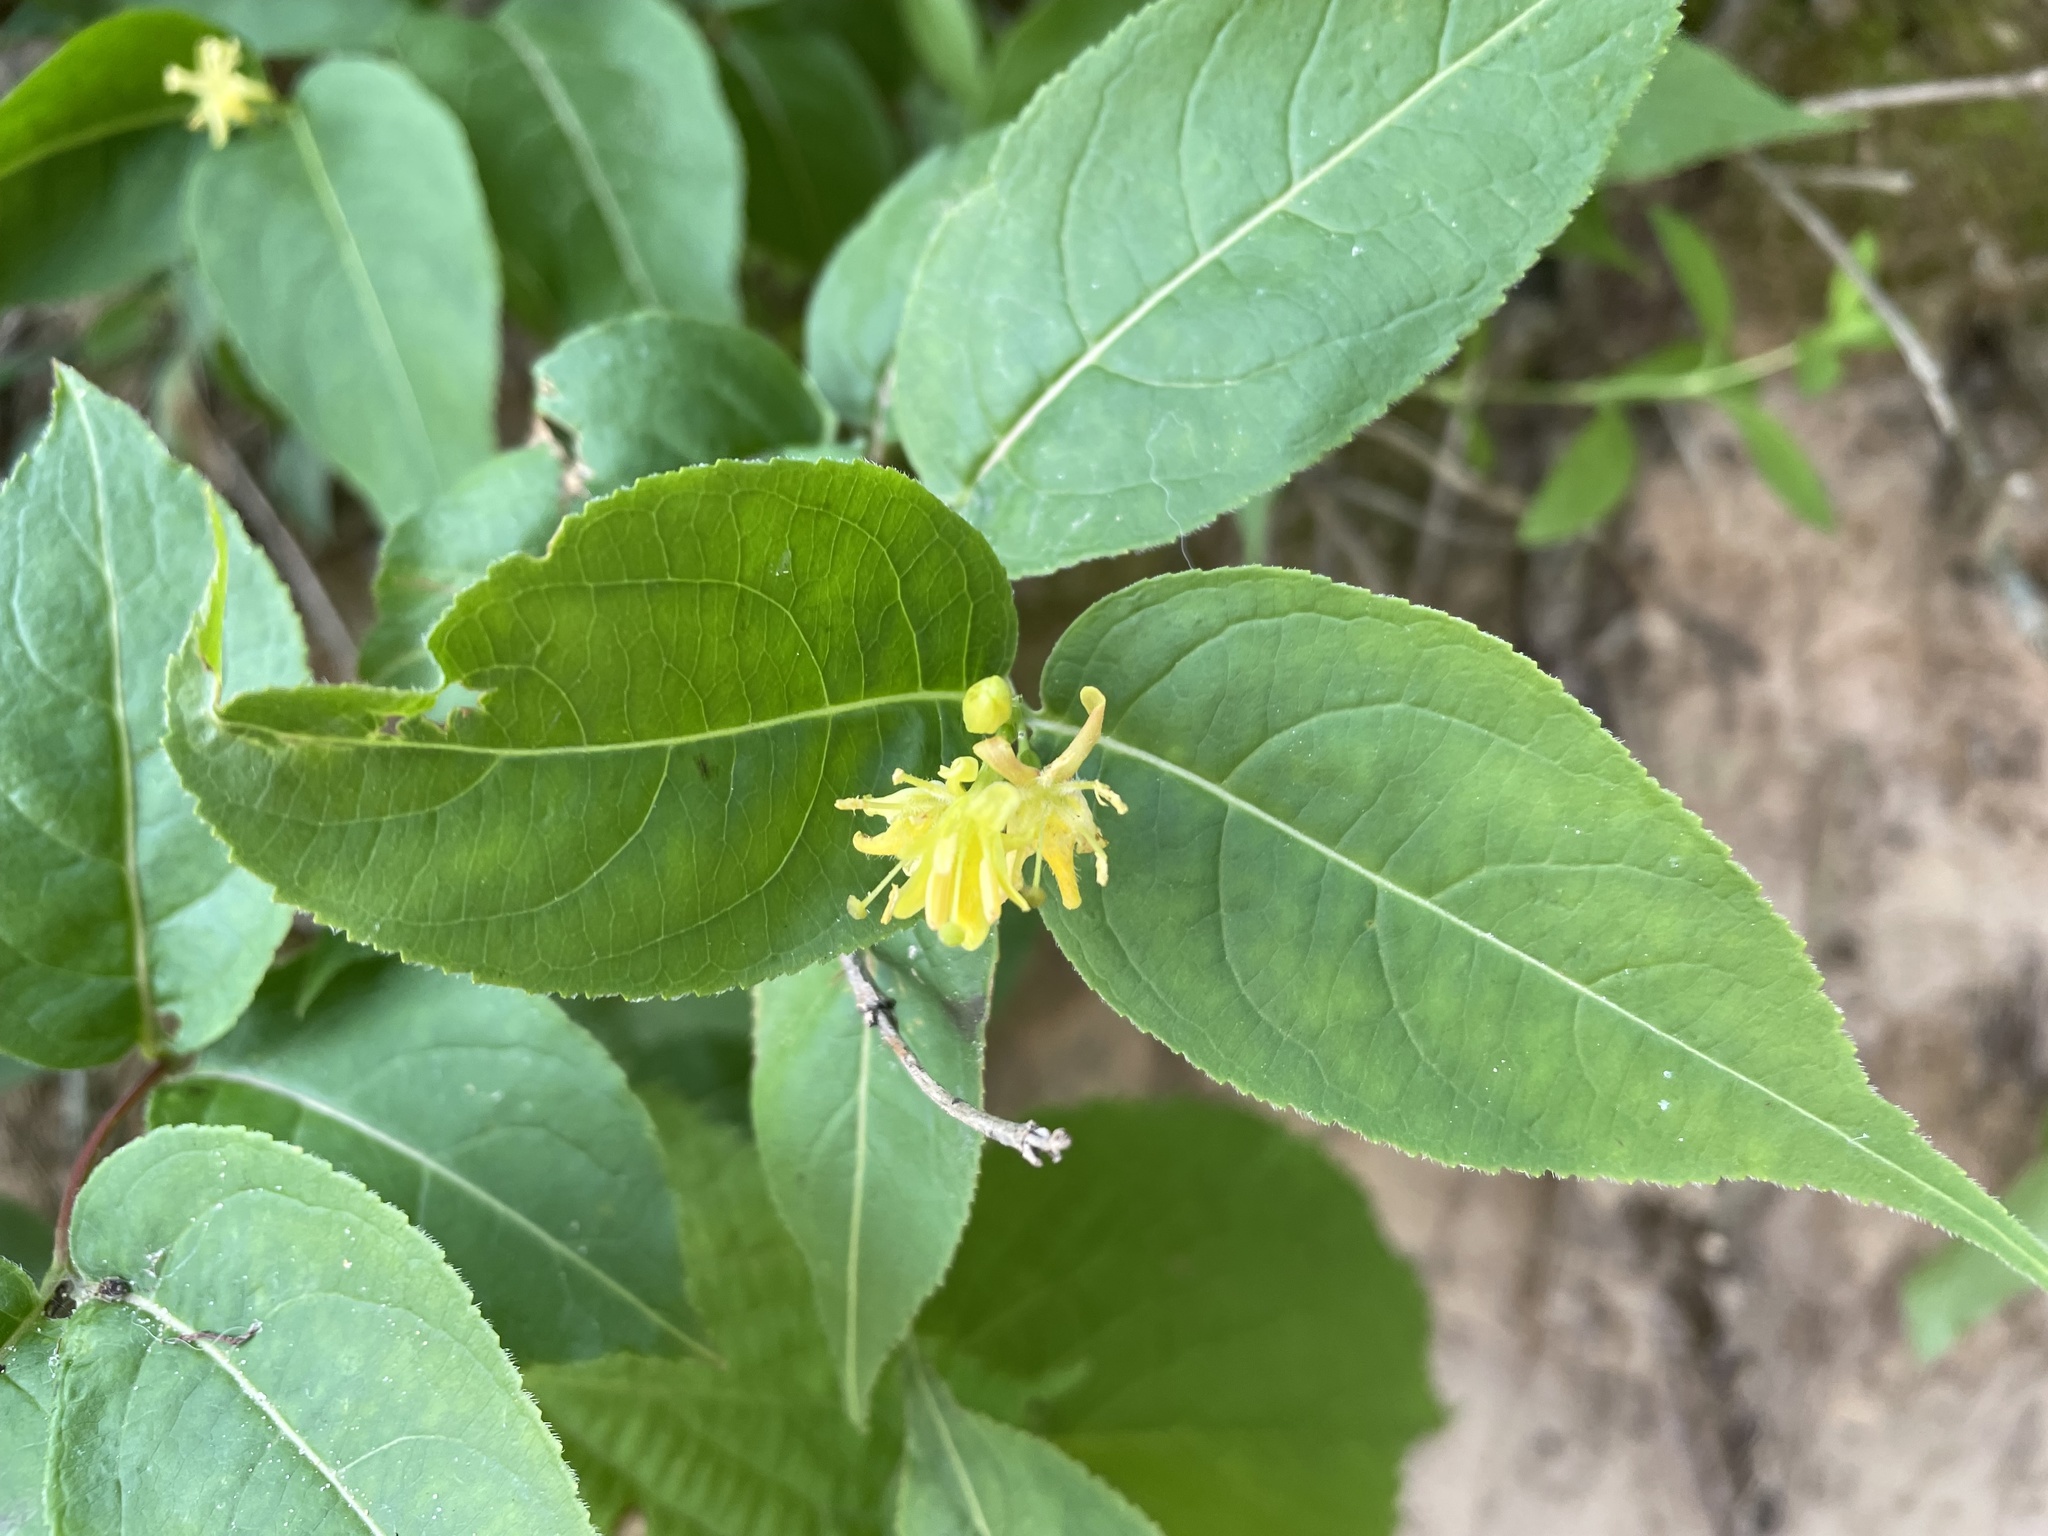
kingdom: Plantae
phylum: Tracheophyta
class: Magnoliopsida
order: Dipsacales
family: Caprifoliaceae
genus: Diervilla
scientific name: Diervilla lonicera
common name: Bush-honeysuckle
